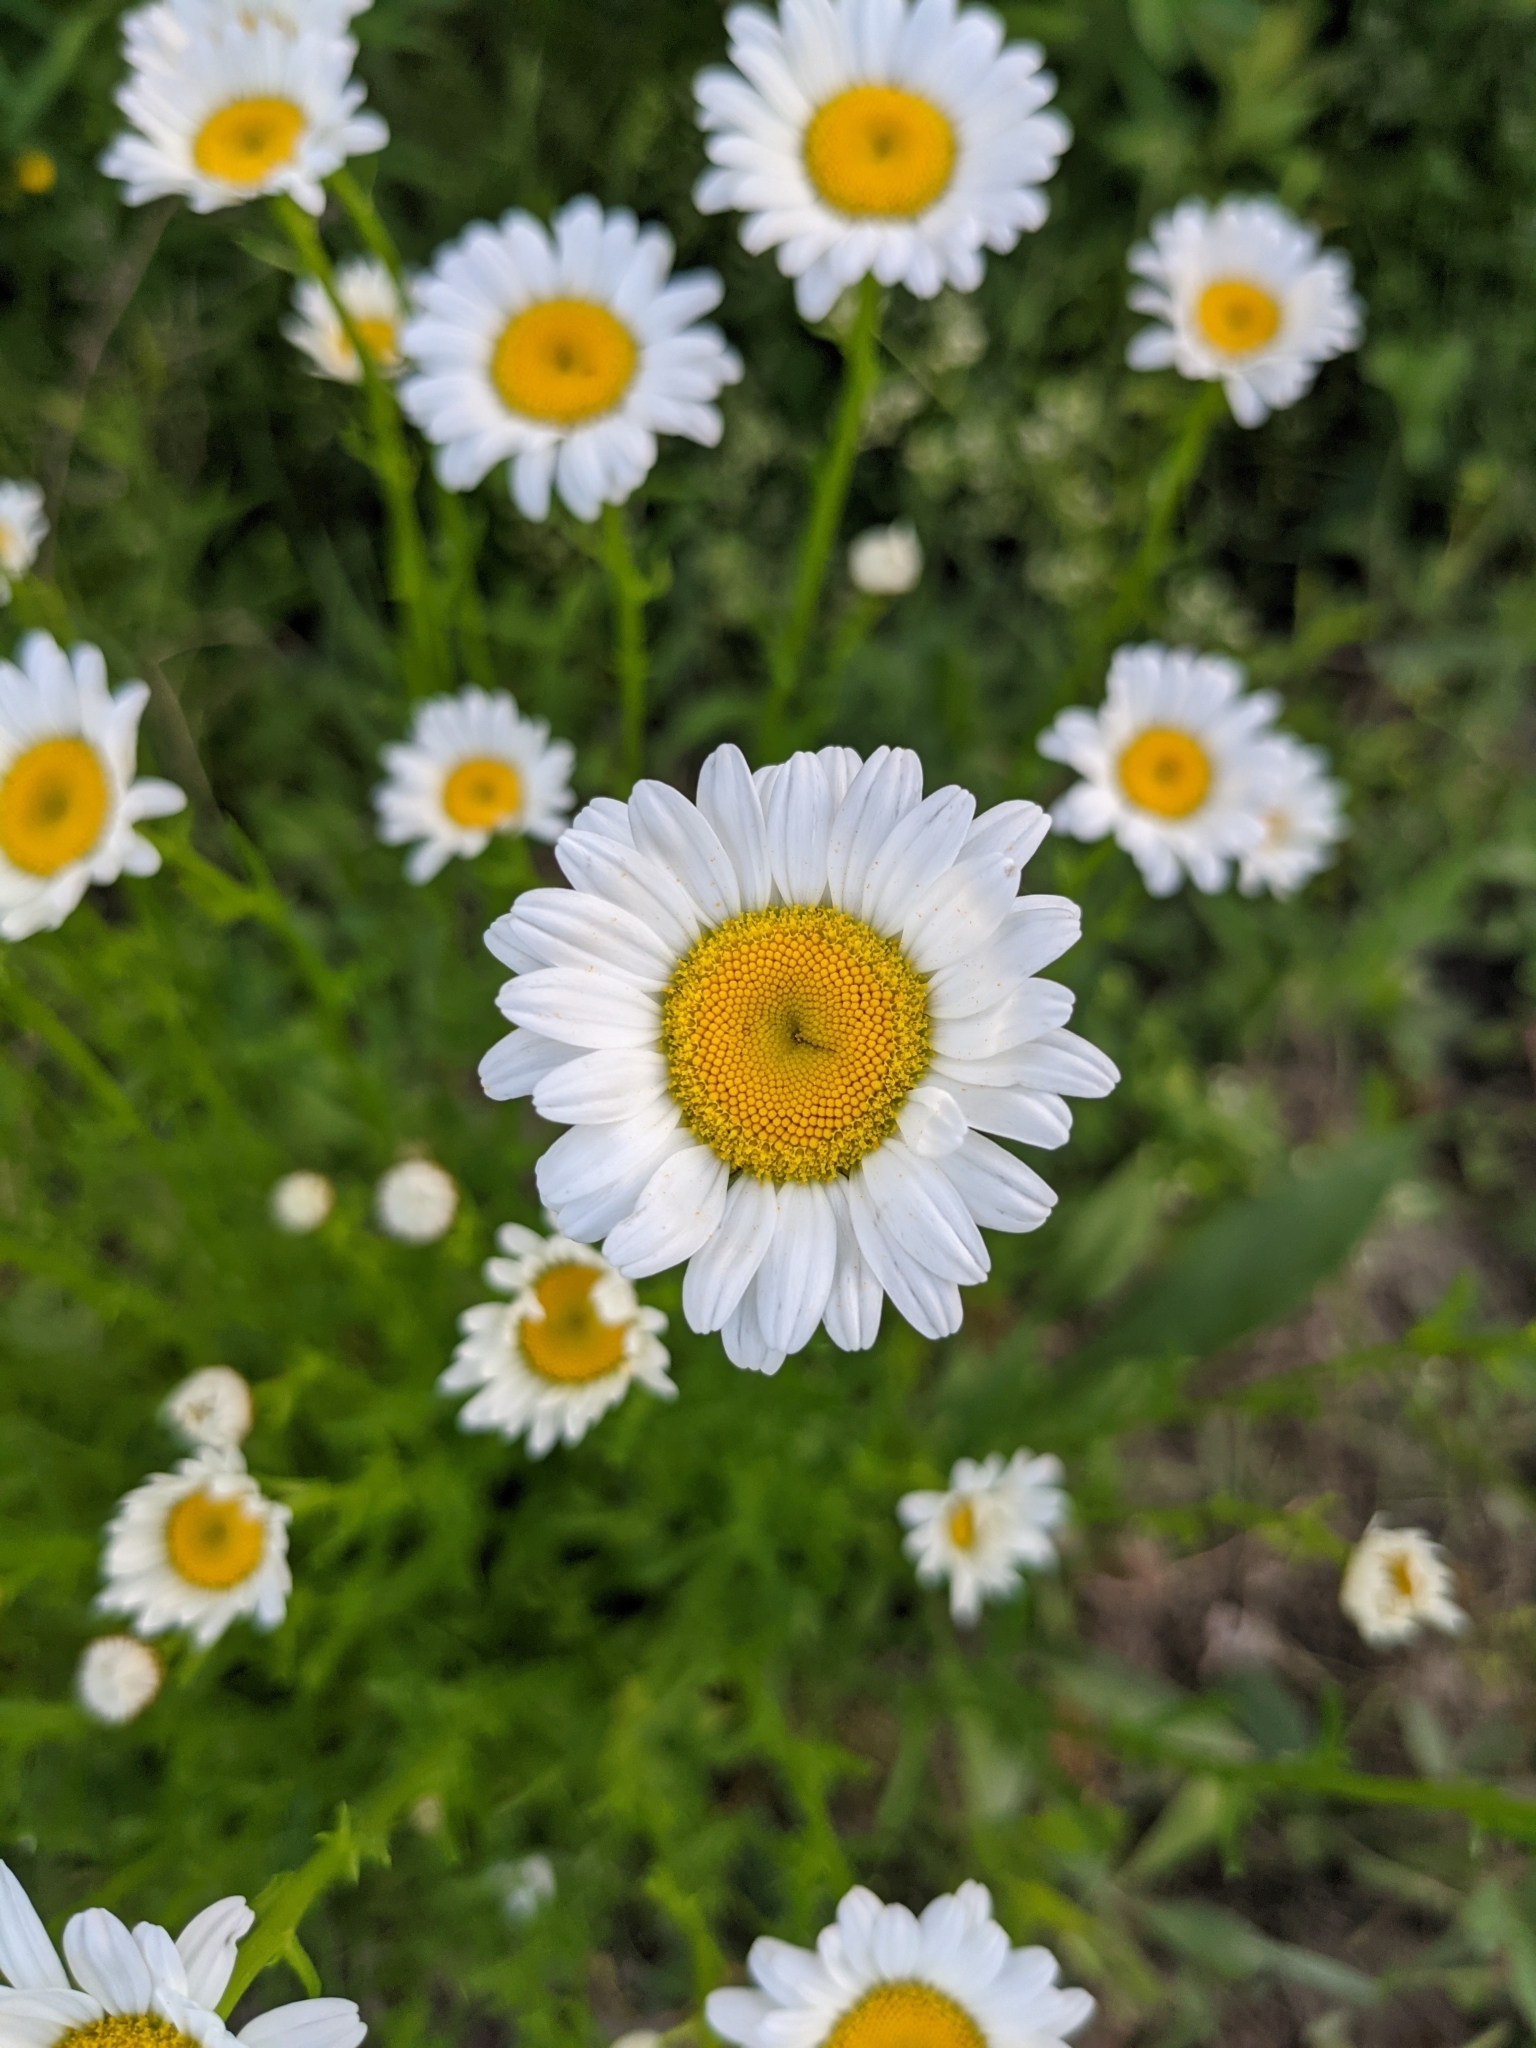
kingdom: Plantae
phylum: Tracheophyta
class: Magnoliopsida
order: Asterales
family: Asteraceae
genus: Leucanthemum
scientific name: Leucanthemum vulgare
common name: Oxeye daisy
